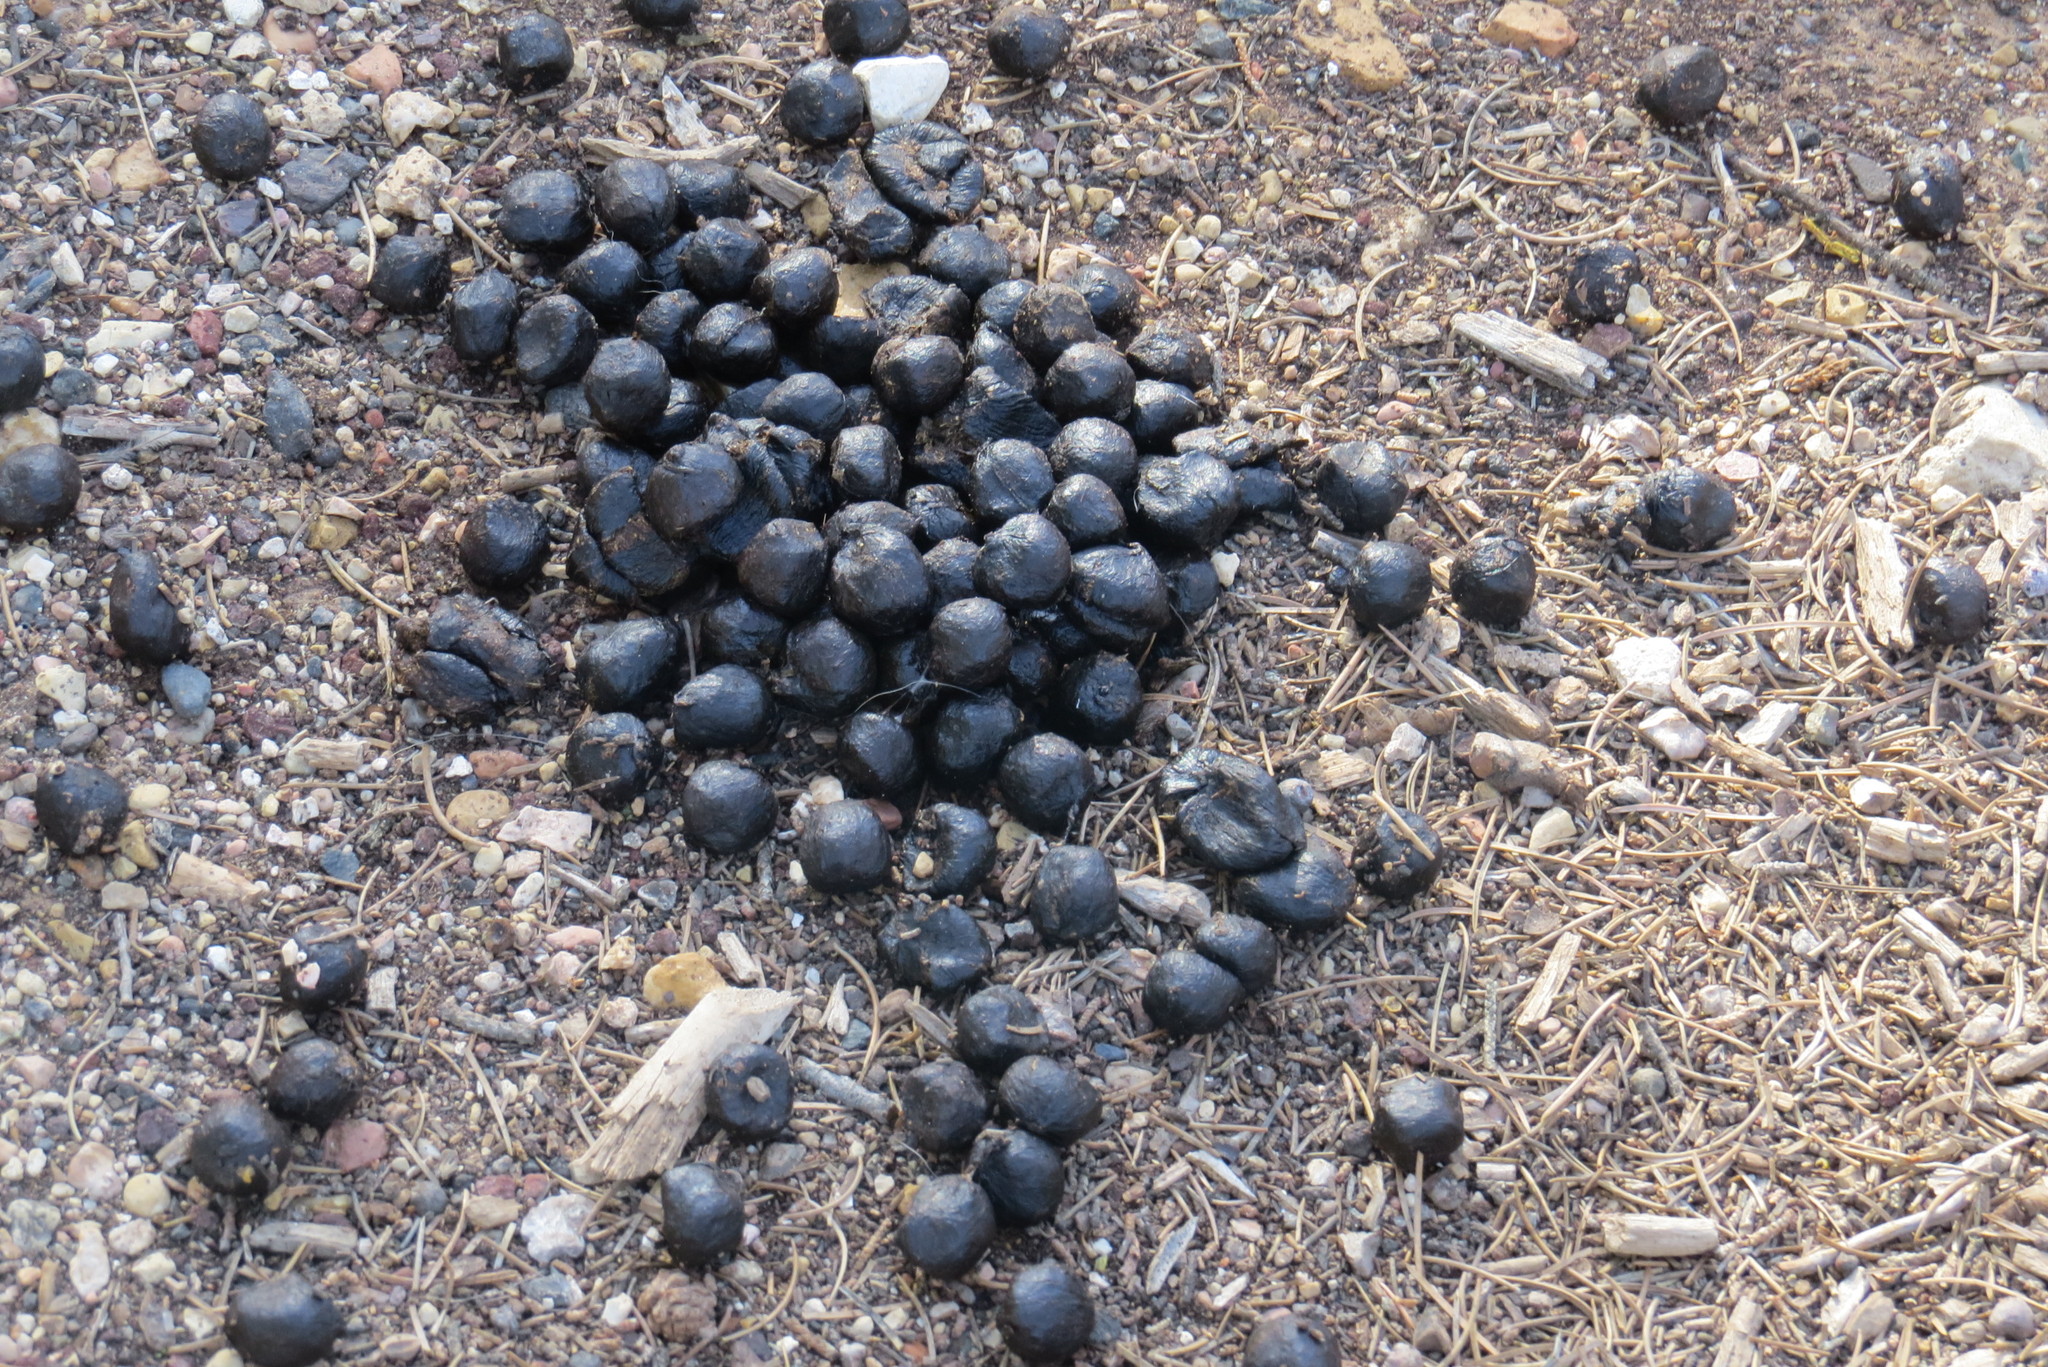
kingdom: Animalia
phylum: Chordata
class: Mammalia
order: Artiodactyla
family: Cervidae
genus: Cervus
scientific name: Cervus elaphus
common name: Red deer
